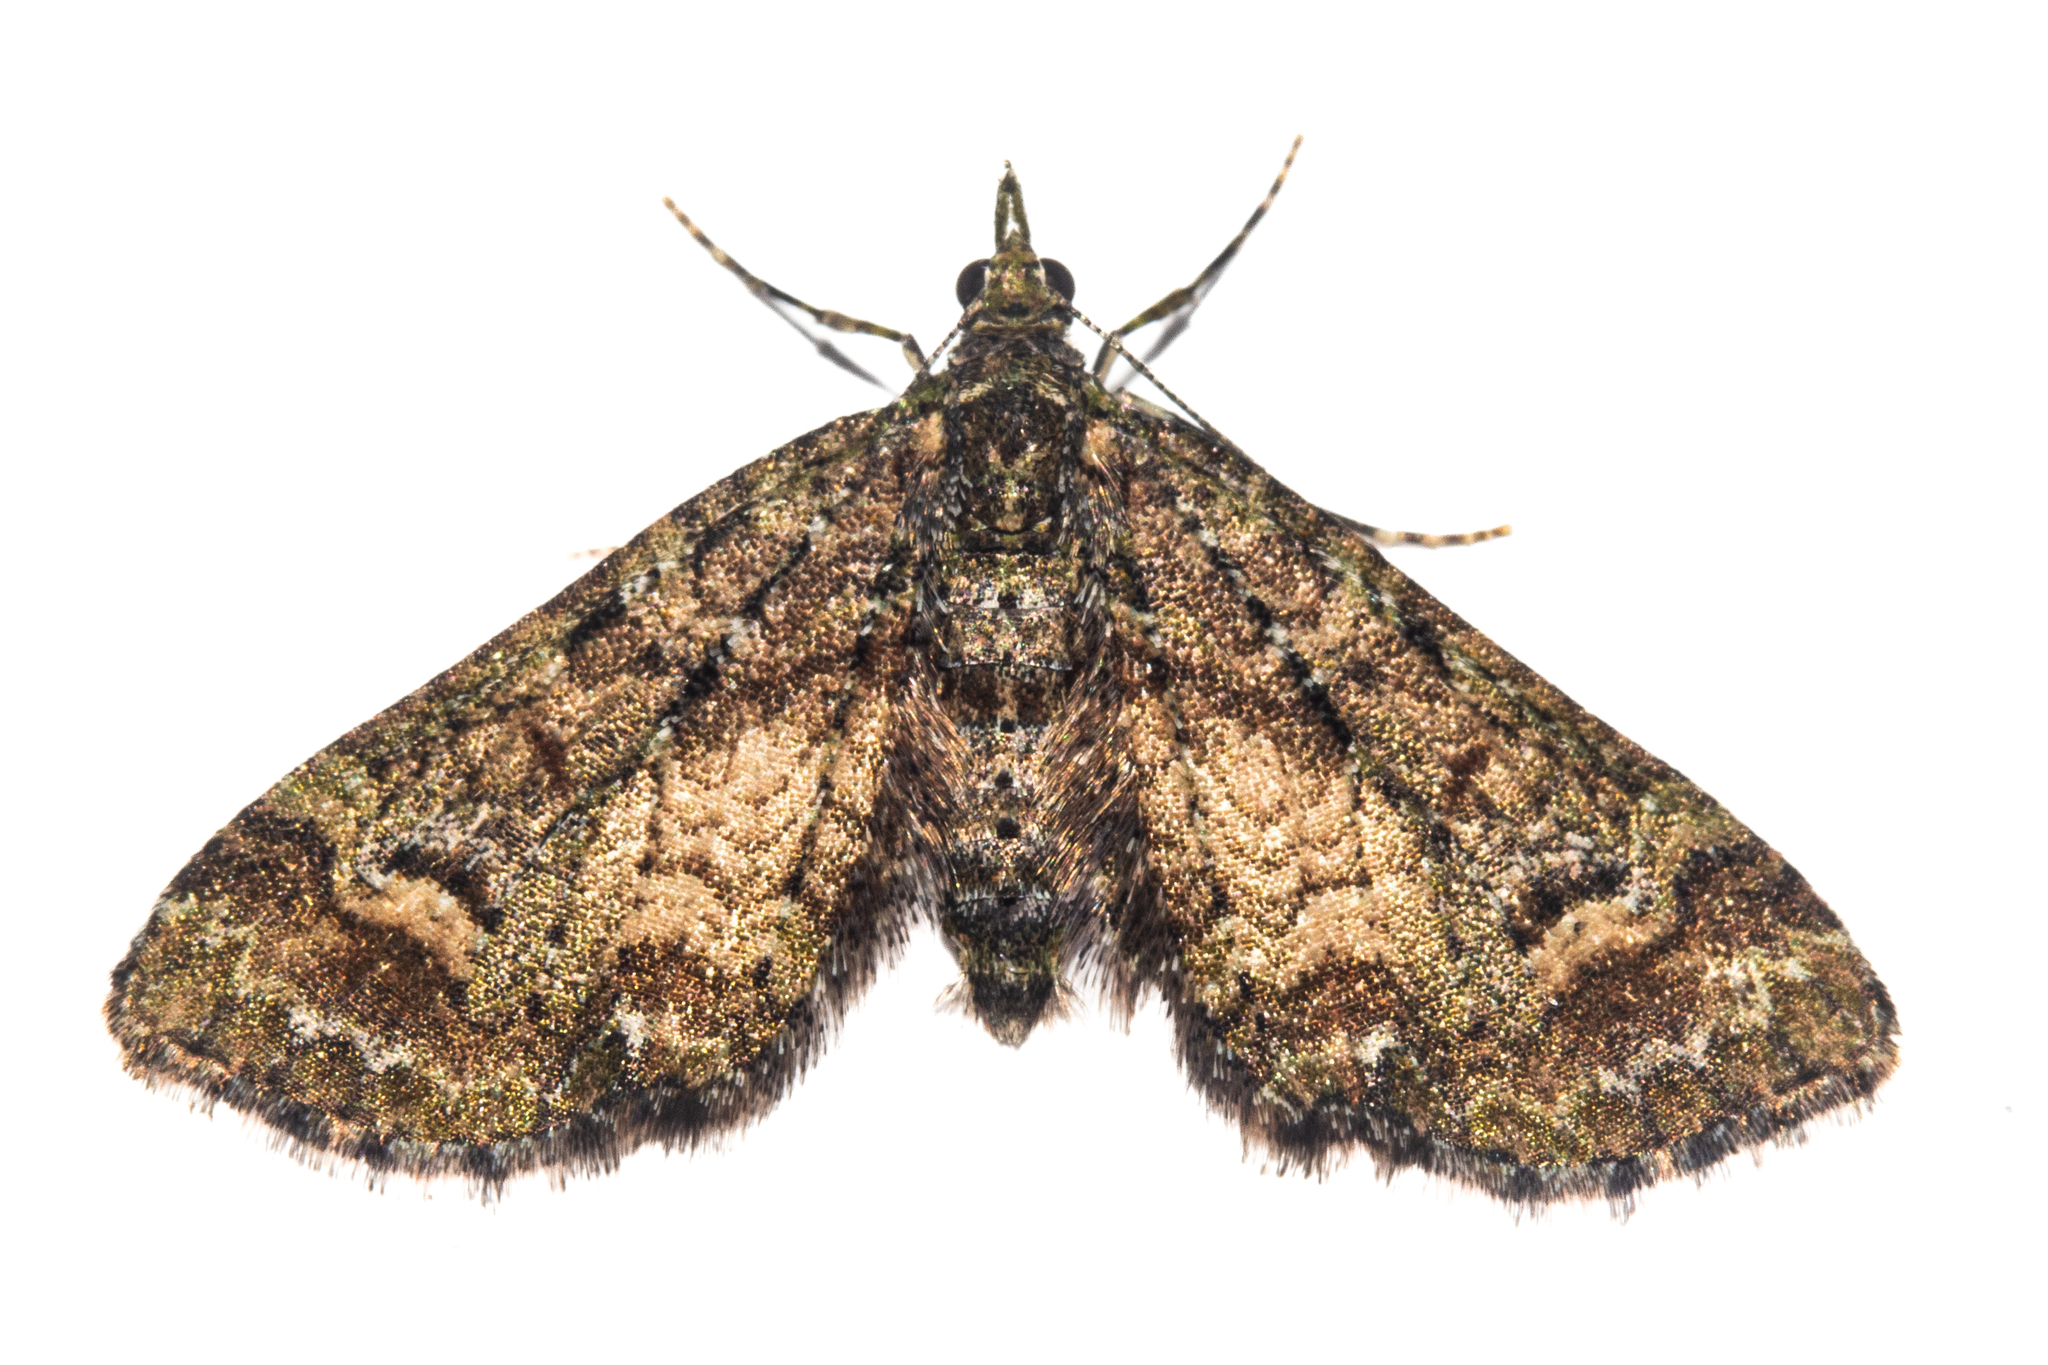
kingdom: Animalia
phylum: Arthropoda
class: Insecta
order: Lepidoptera
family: Geometridae
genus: Idaea
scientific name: Idaea mutanda
